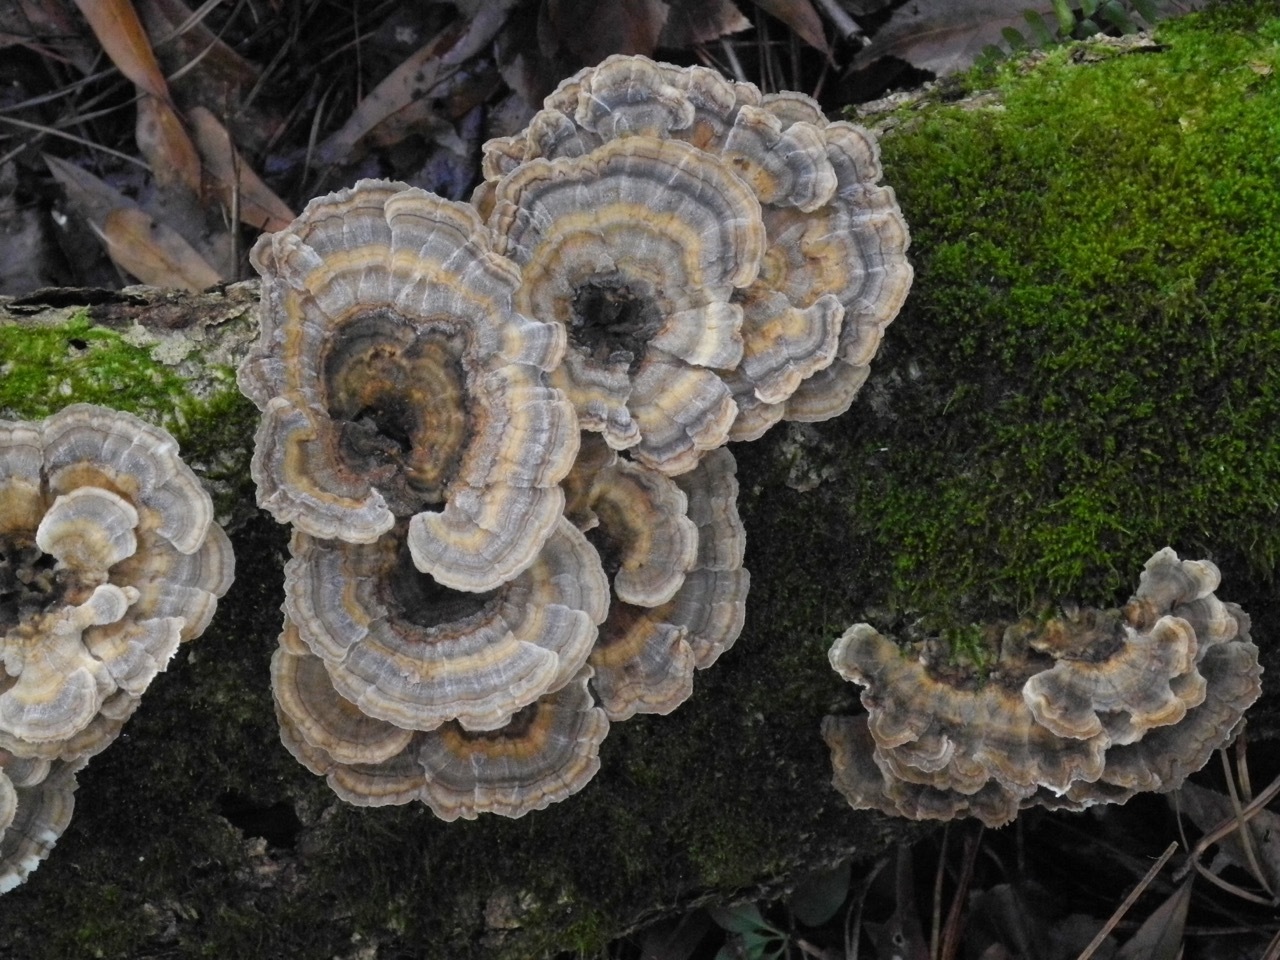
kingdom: Fungi
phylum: Basidiomycota
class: Agaricomycetes
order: Polyporales
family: Polyporaceae
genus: Trametes
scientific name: Trametes versicolor
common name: Turkeytail
